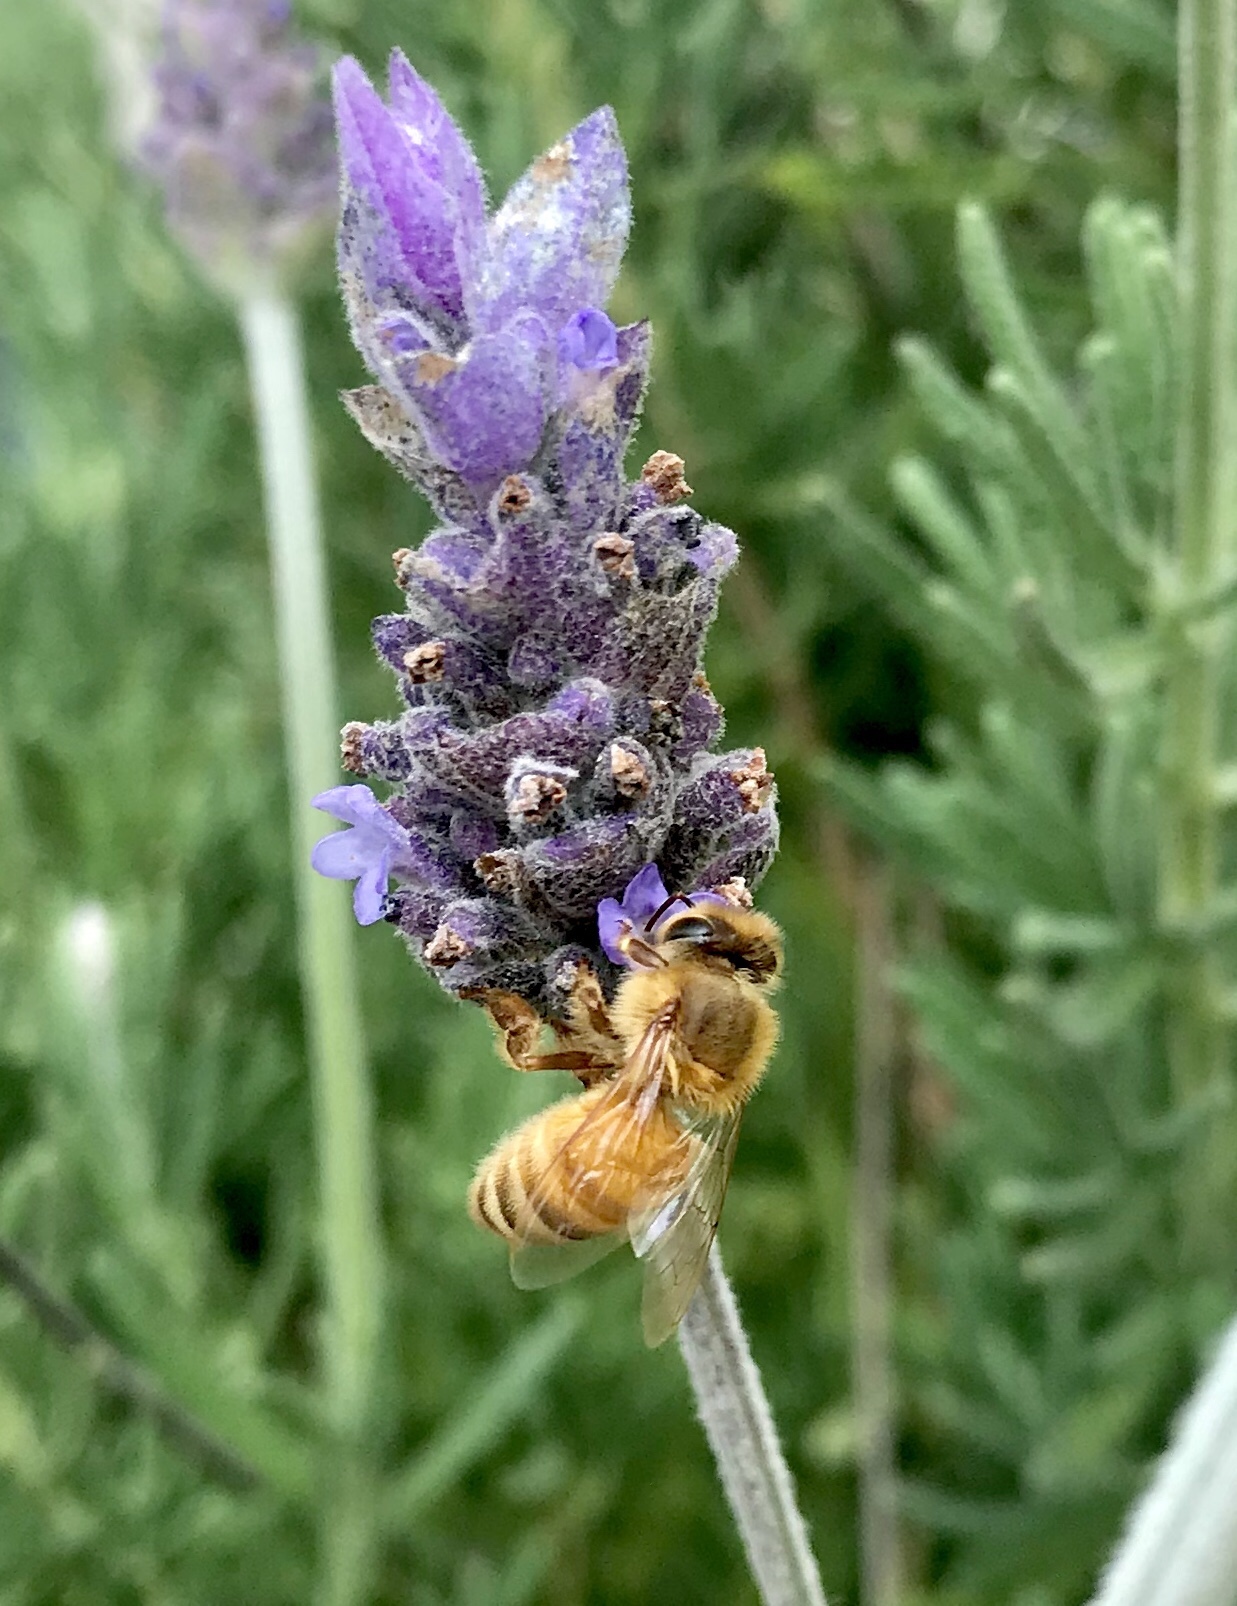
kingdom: Animalia
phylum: Arthropoda
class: Insecta
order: Hymenoptera
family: Apidae
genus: Apis
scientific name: Apis mellifera
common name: Honey bee
